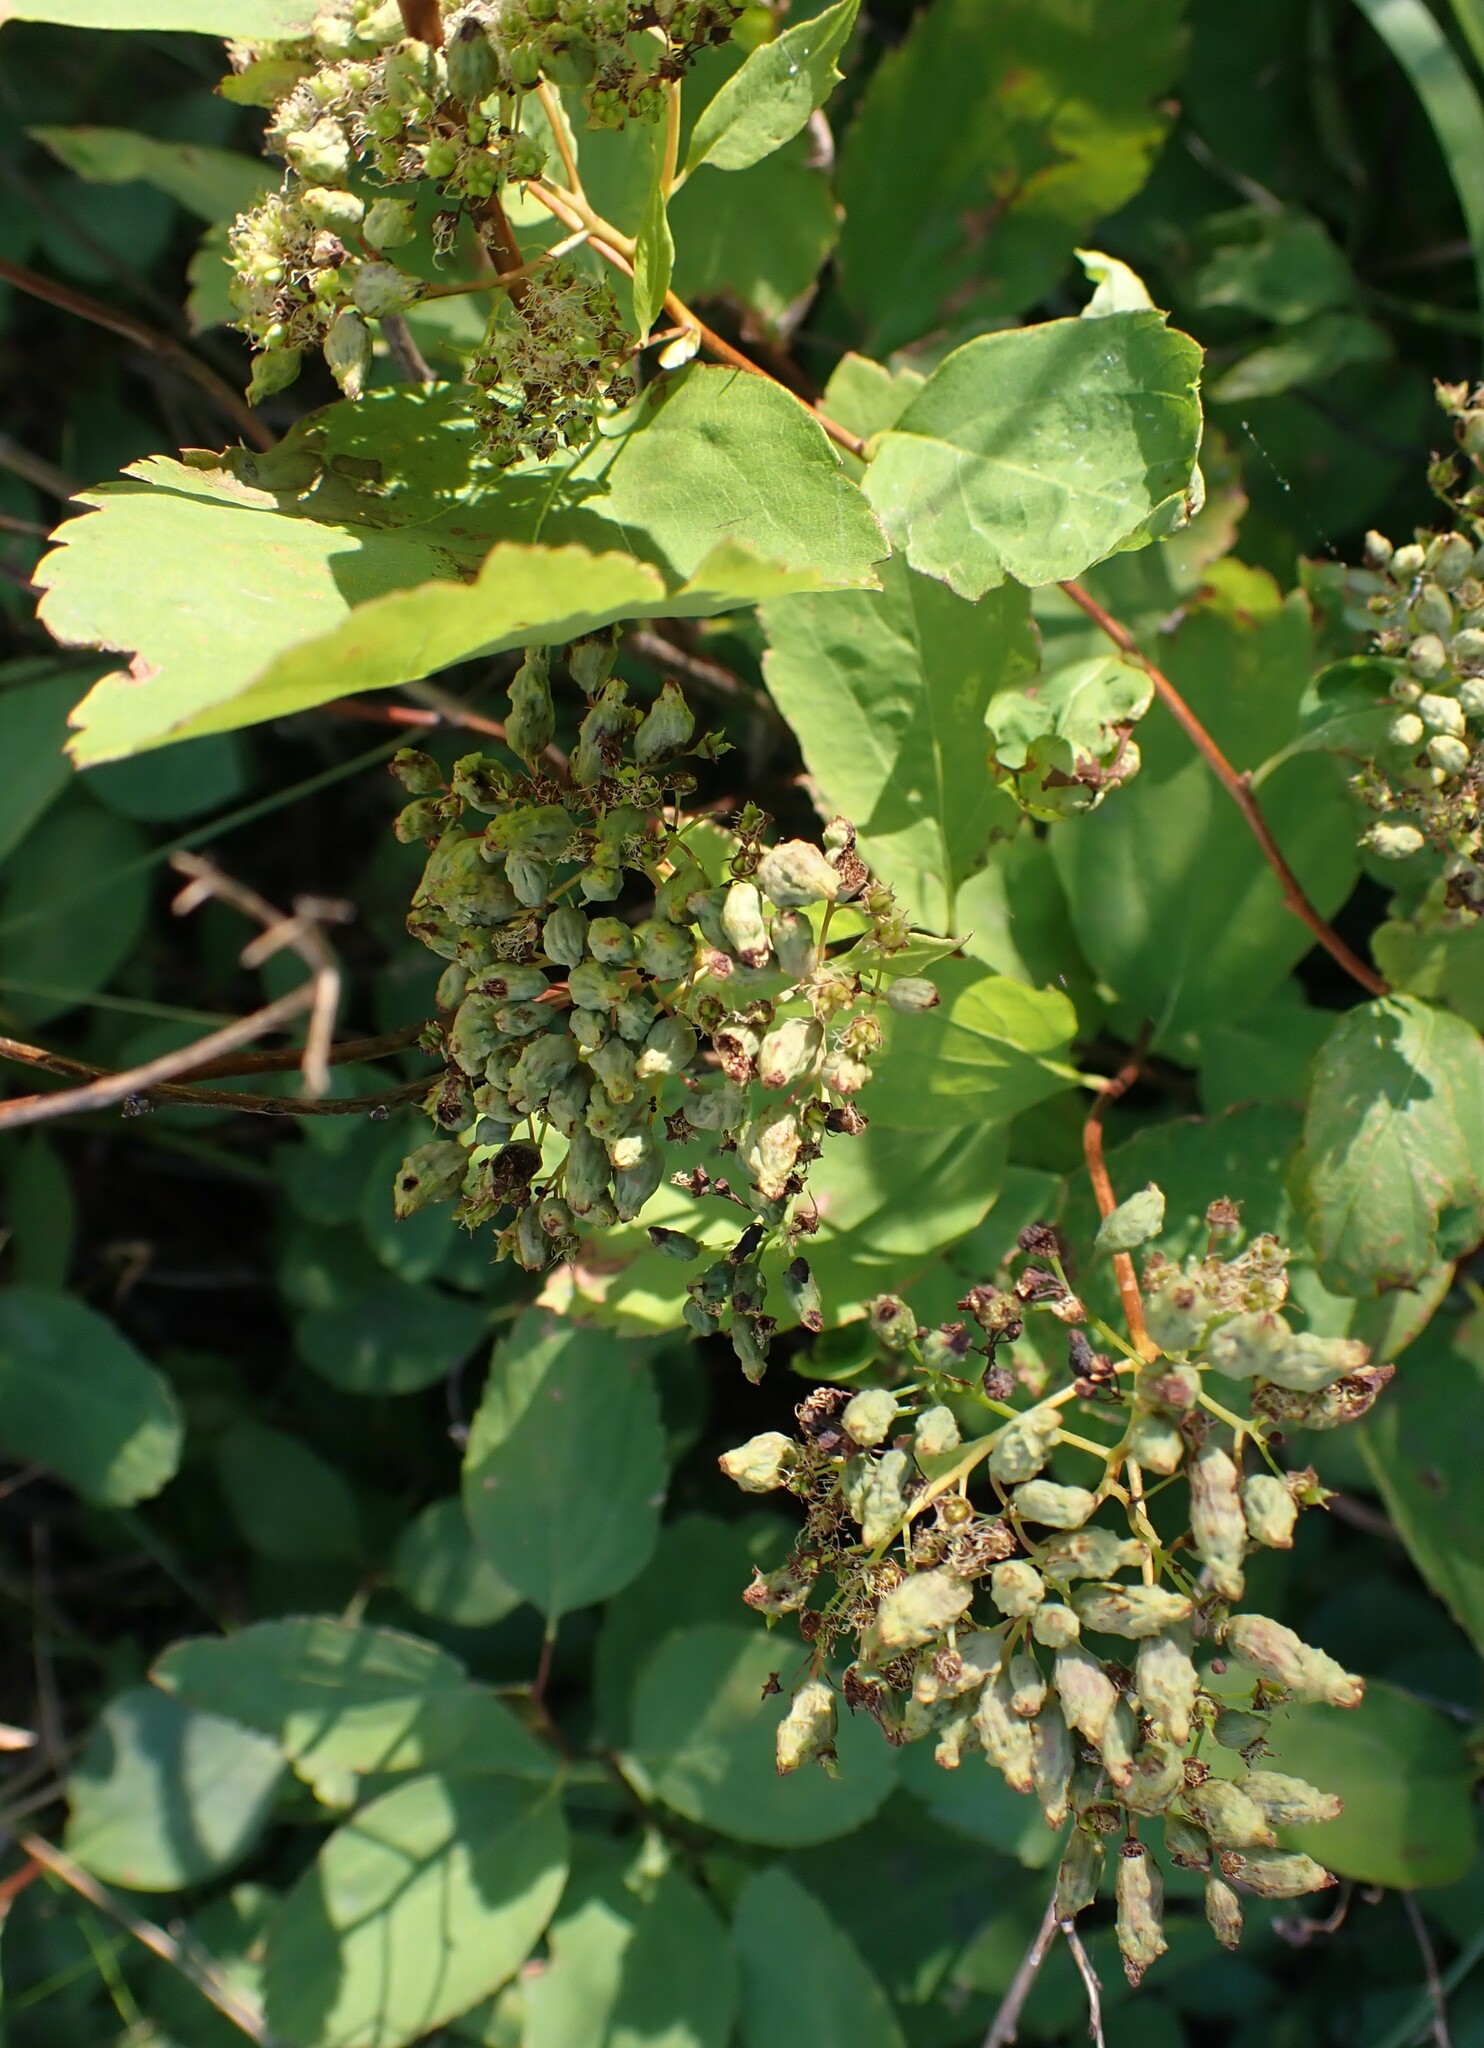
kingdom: Plantae
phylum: Tracheophyta
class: Magnoliopsida
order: Rosales
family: Rosaceae
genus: Spiraea
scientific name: Spiraea lucida
